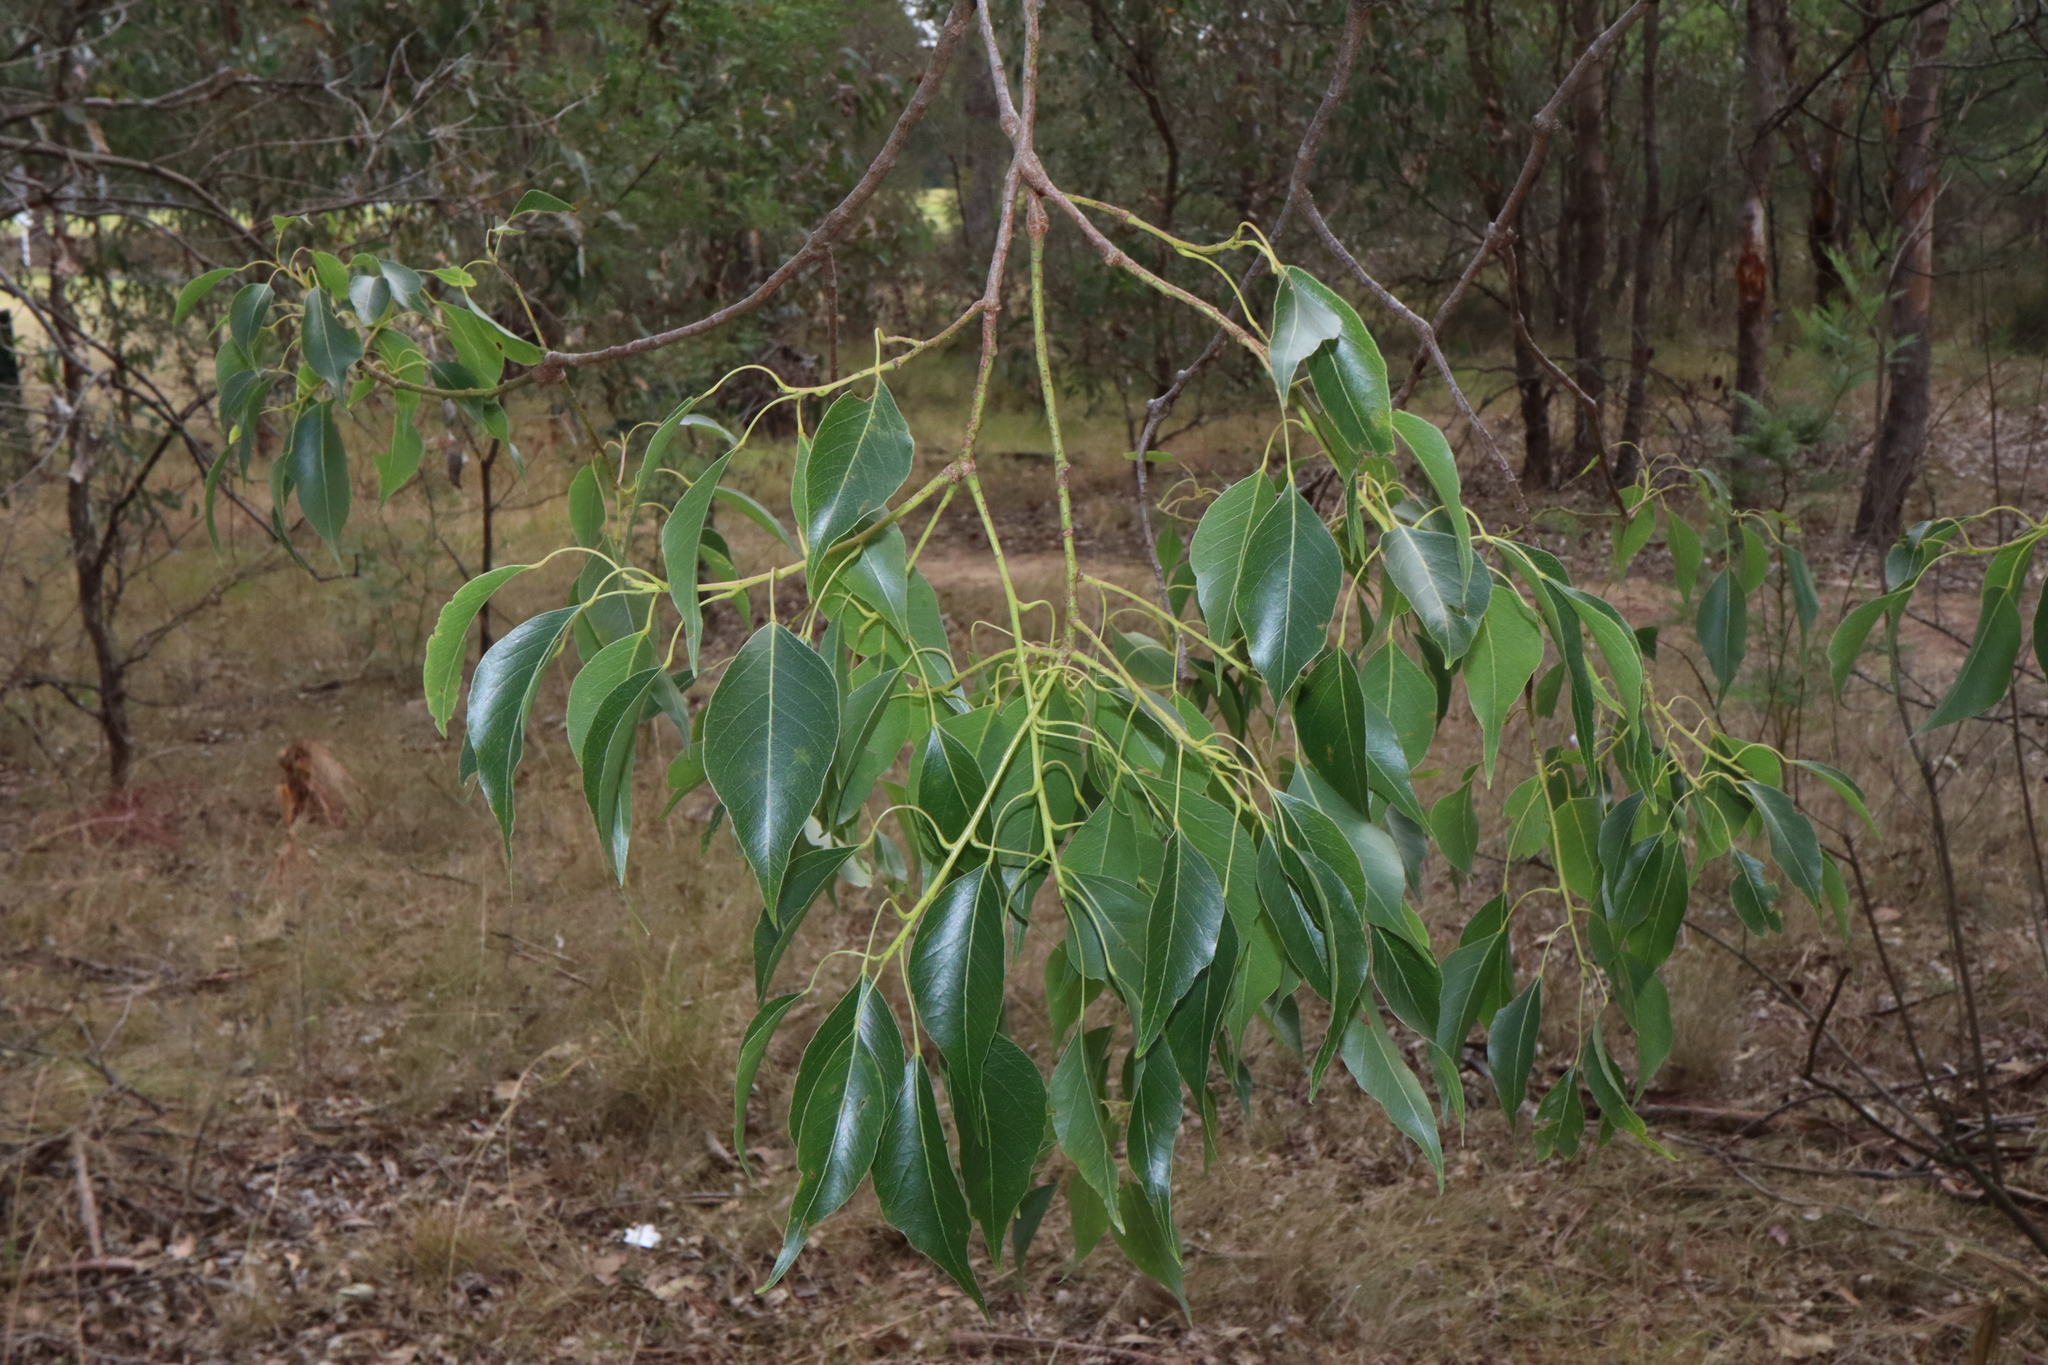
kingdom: Plantae
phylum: Tracheophyta
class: Magnoliopsida
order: Malvales
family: Malvaceae
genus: Brachychiton
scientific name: Brachychiton populneus
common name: Kurrajong
